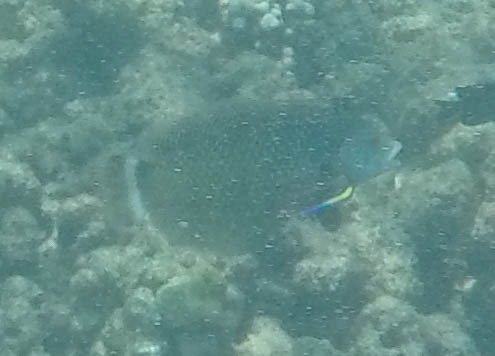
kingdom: Animalia
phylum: Chordata
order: Perciformes
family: Labridae
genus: Novaculichthys
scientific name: Novaculichthys taeniourus
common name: Rockmover wrasse
